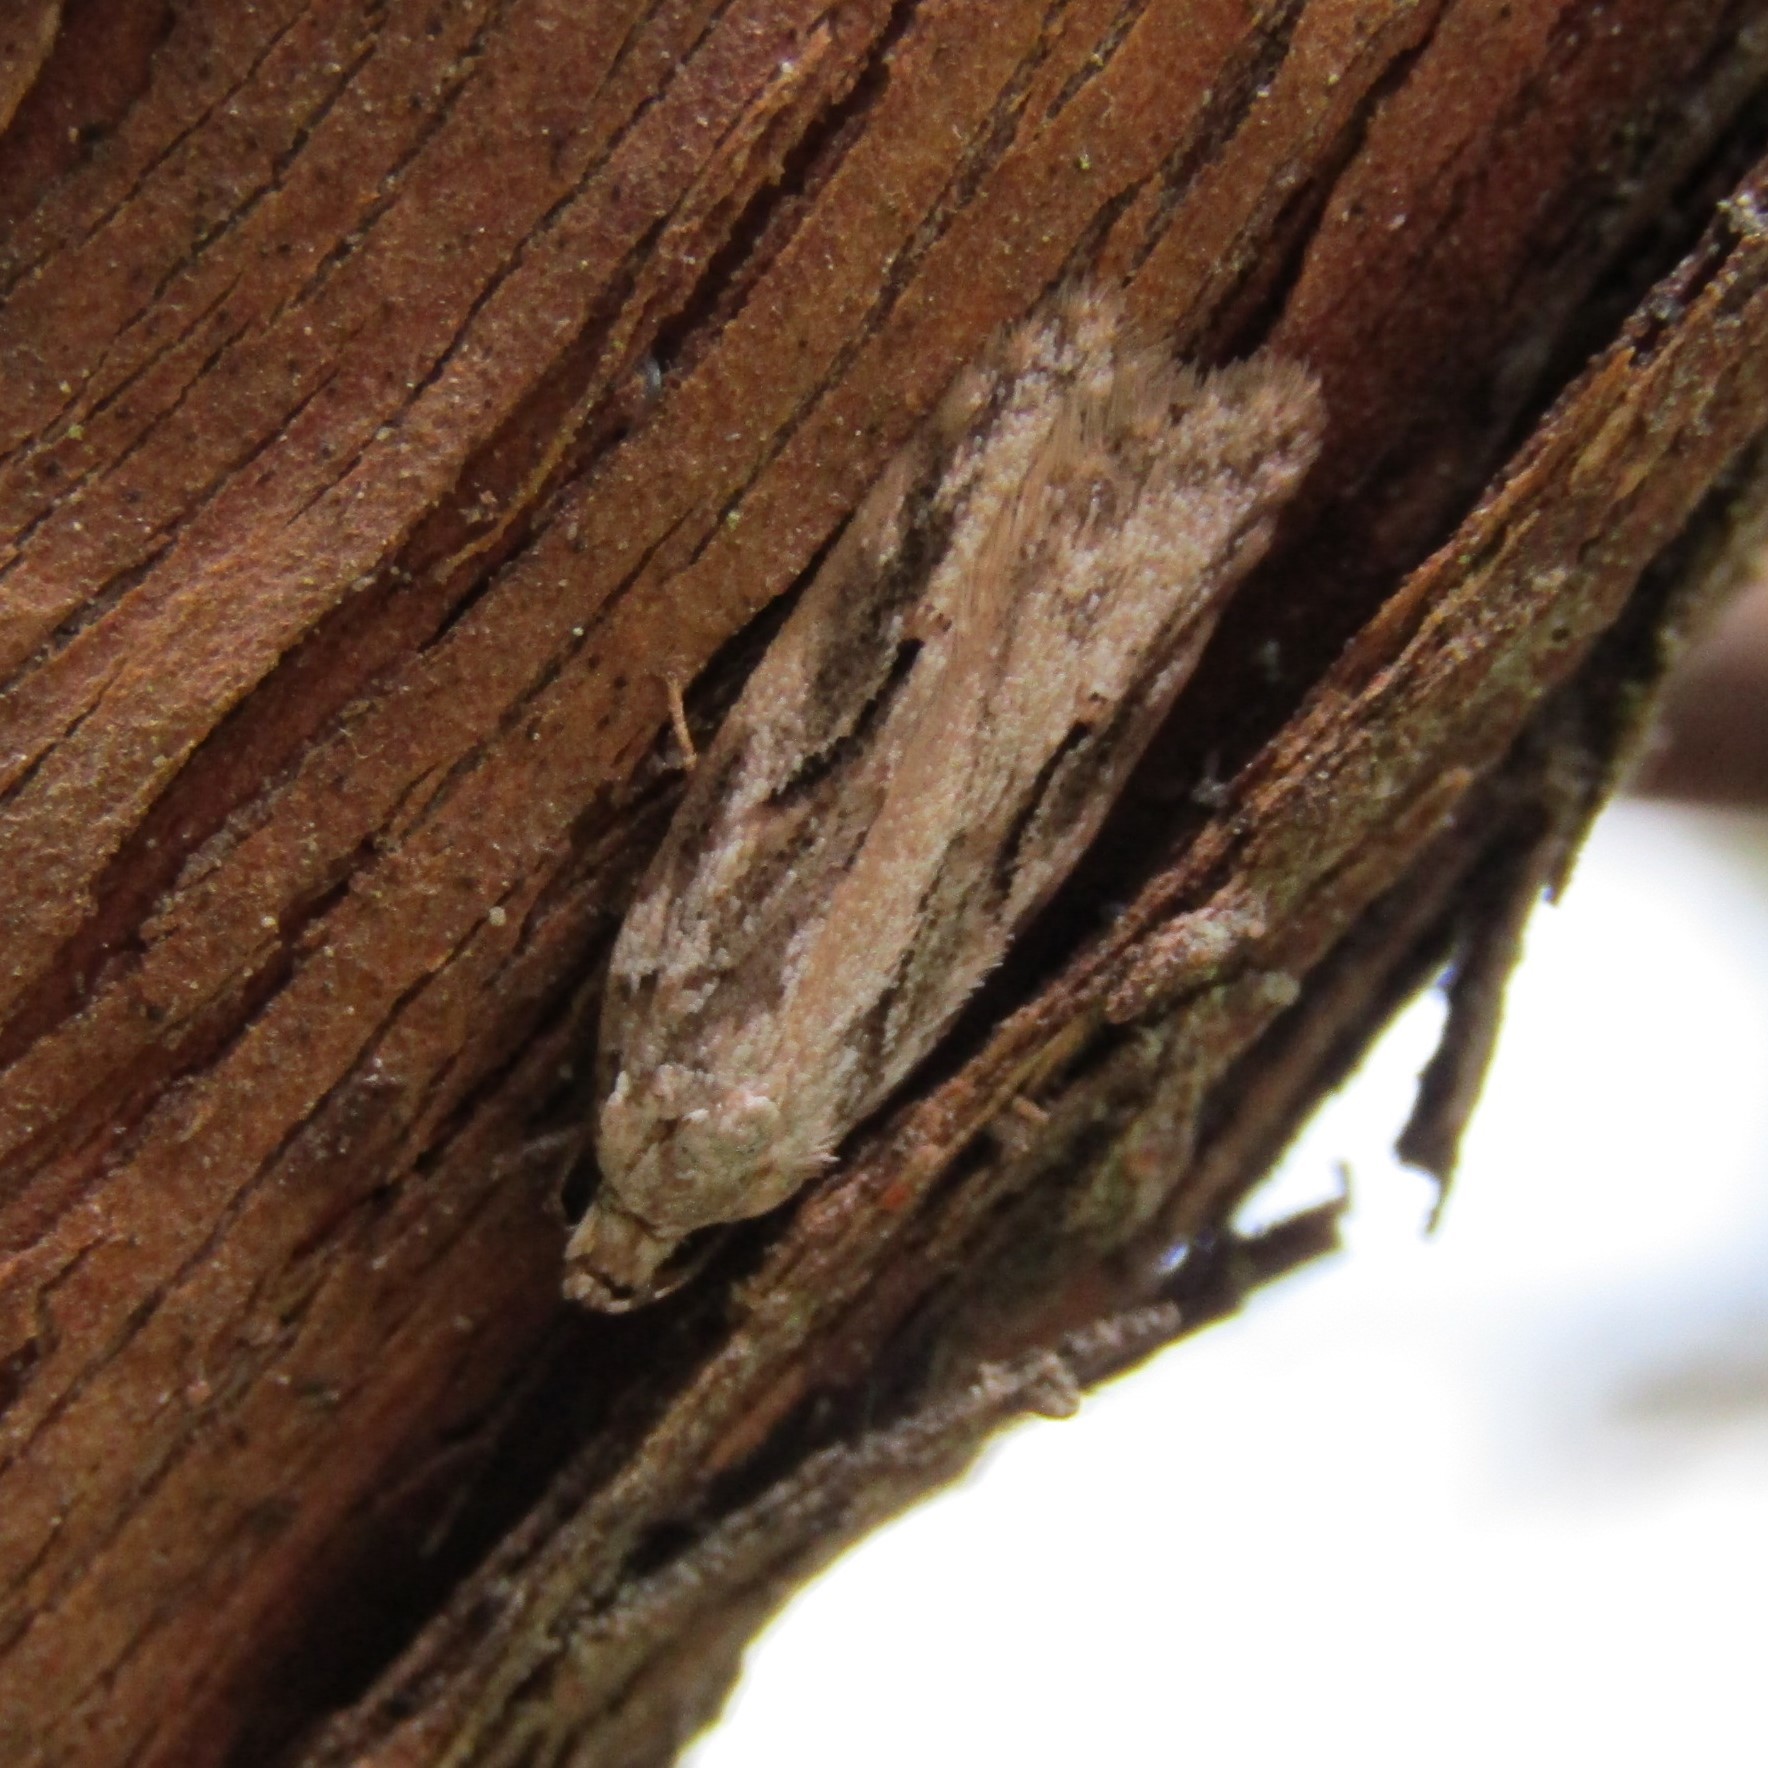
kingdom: Animalia
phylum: Arthropoda
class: Insecta
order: Lepidoptera
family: Oecophoridae
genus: Izatha
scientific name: Izatha mesoschista
